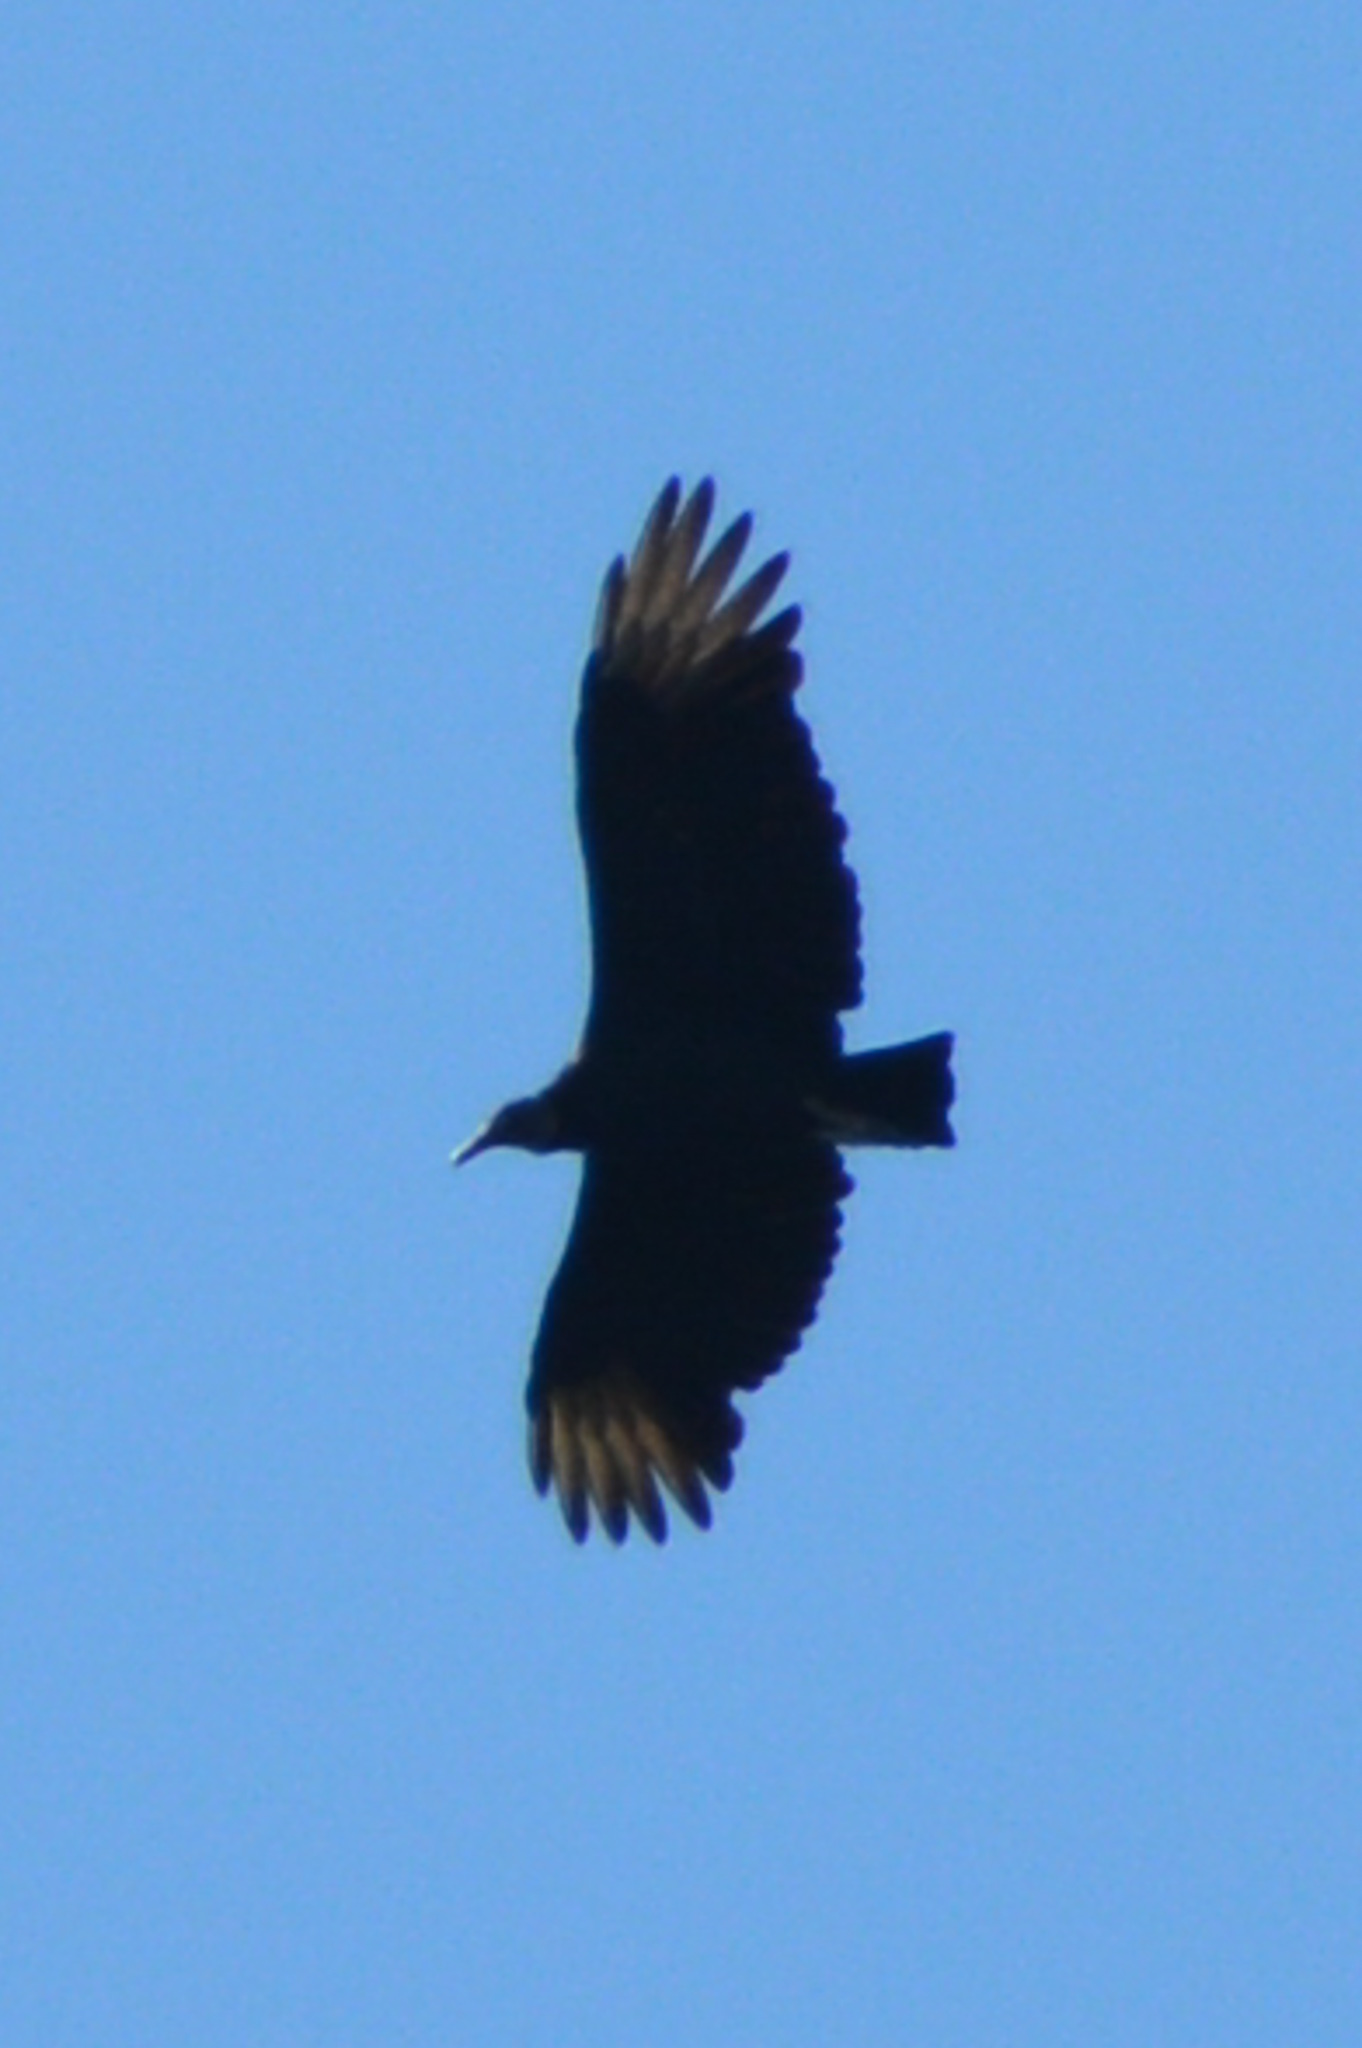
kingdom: Animalia
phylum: Chordata
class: Aves
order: Accipitriformes
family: Cathartidae
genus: Coragyps
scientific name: Coragyps atratus
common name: Black vulture
